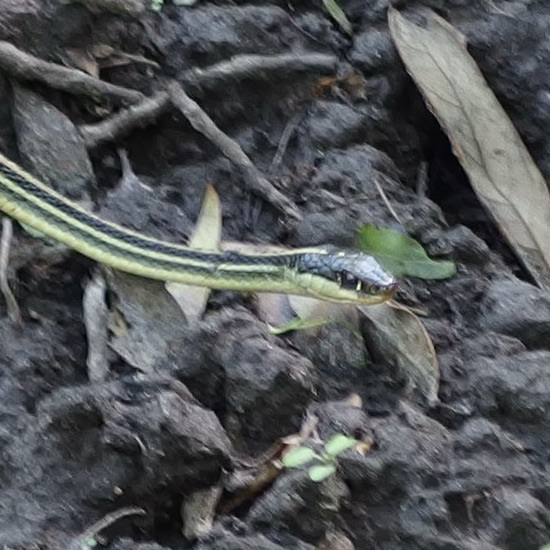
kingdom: Animalia
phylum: Chordata
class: Squamata
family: Colubridae
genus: Thamnophis
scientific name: Thamnophis proximus
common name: Western ribbon snake
